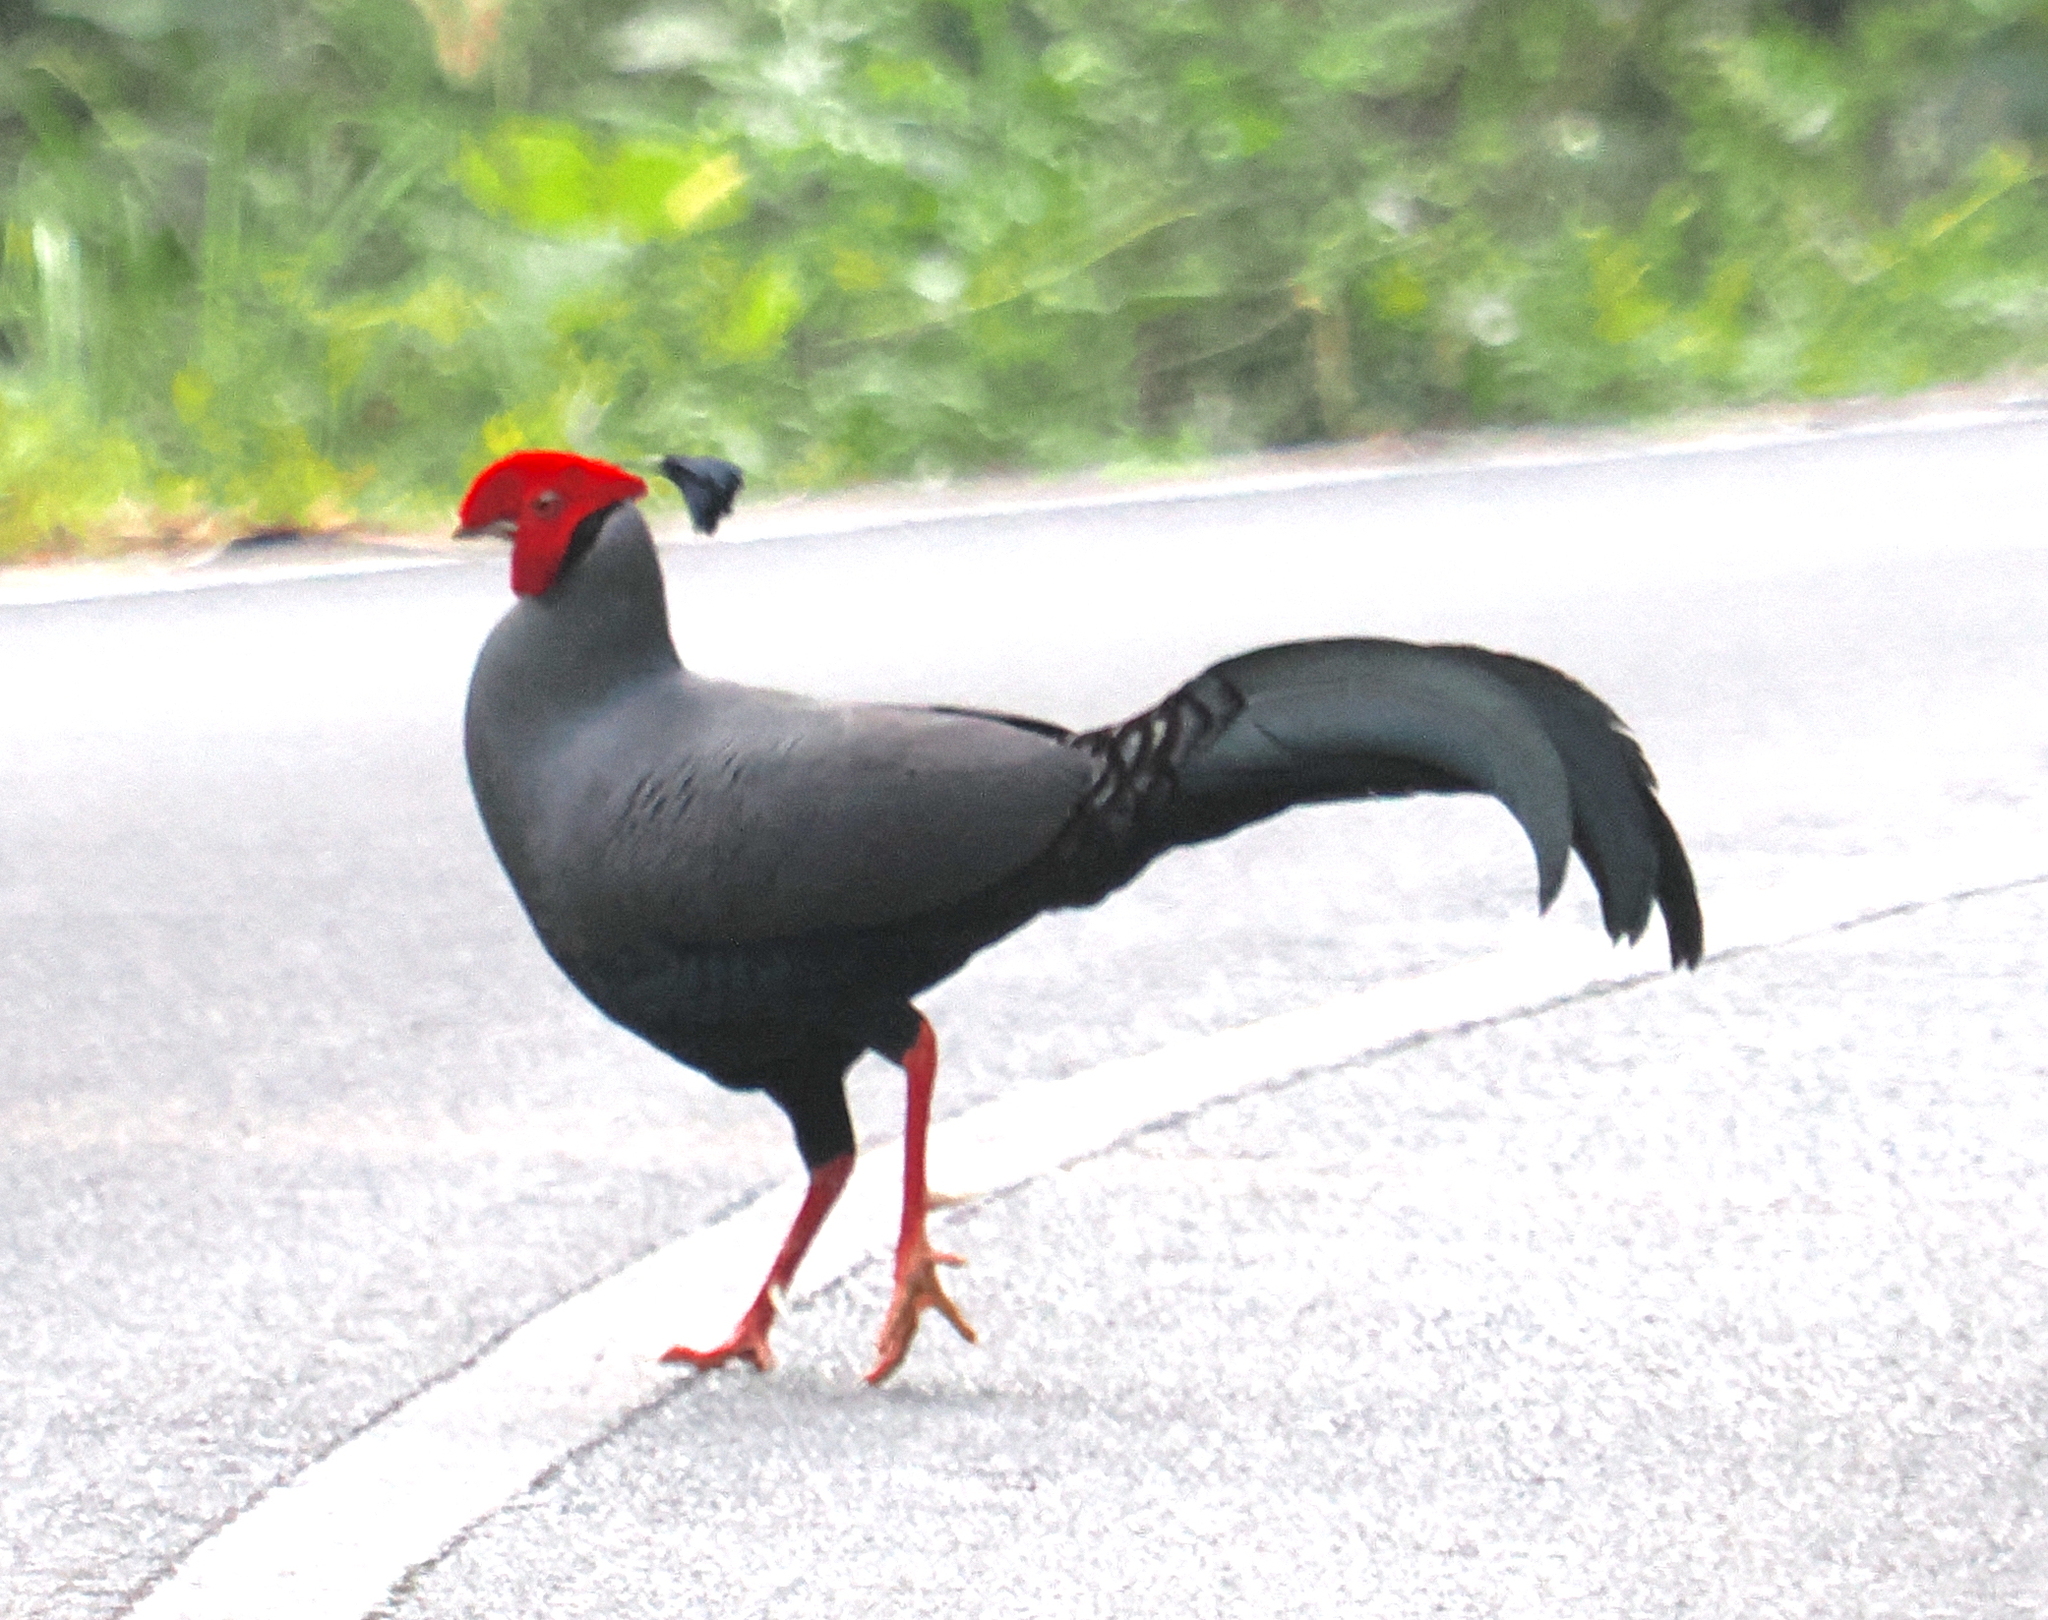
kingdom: Animalia
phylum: Chordata
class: Aves
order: Galliformes
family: Phasianidae
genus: Lophura
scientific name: Lophura diardi
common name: Siamese fireback
